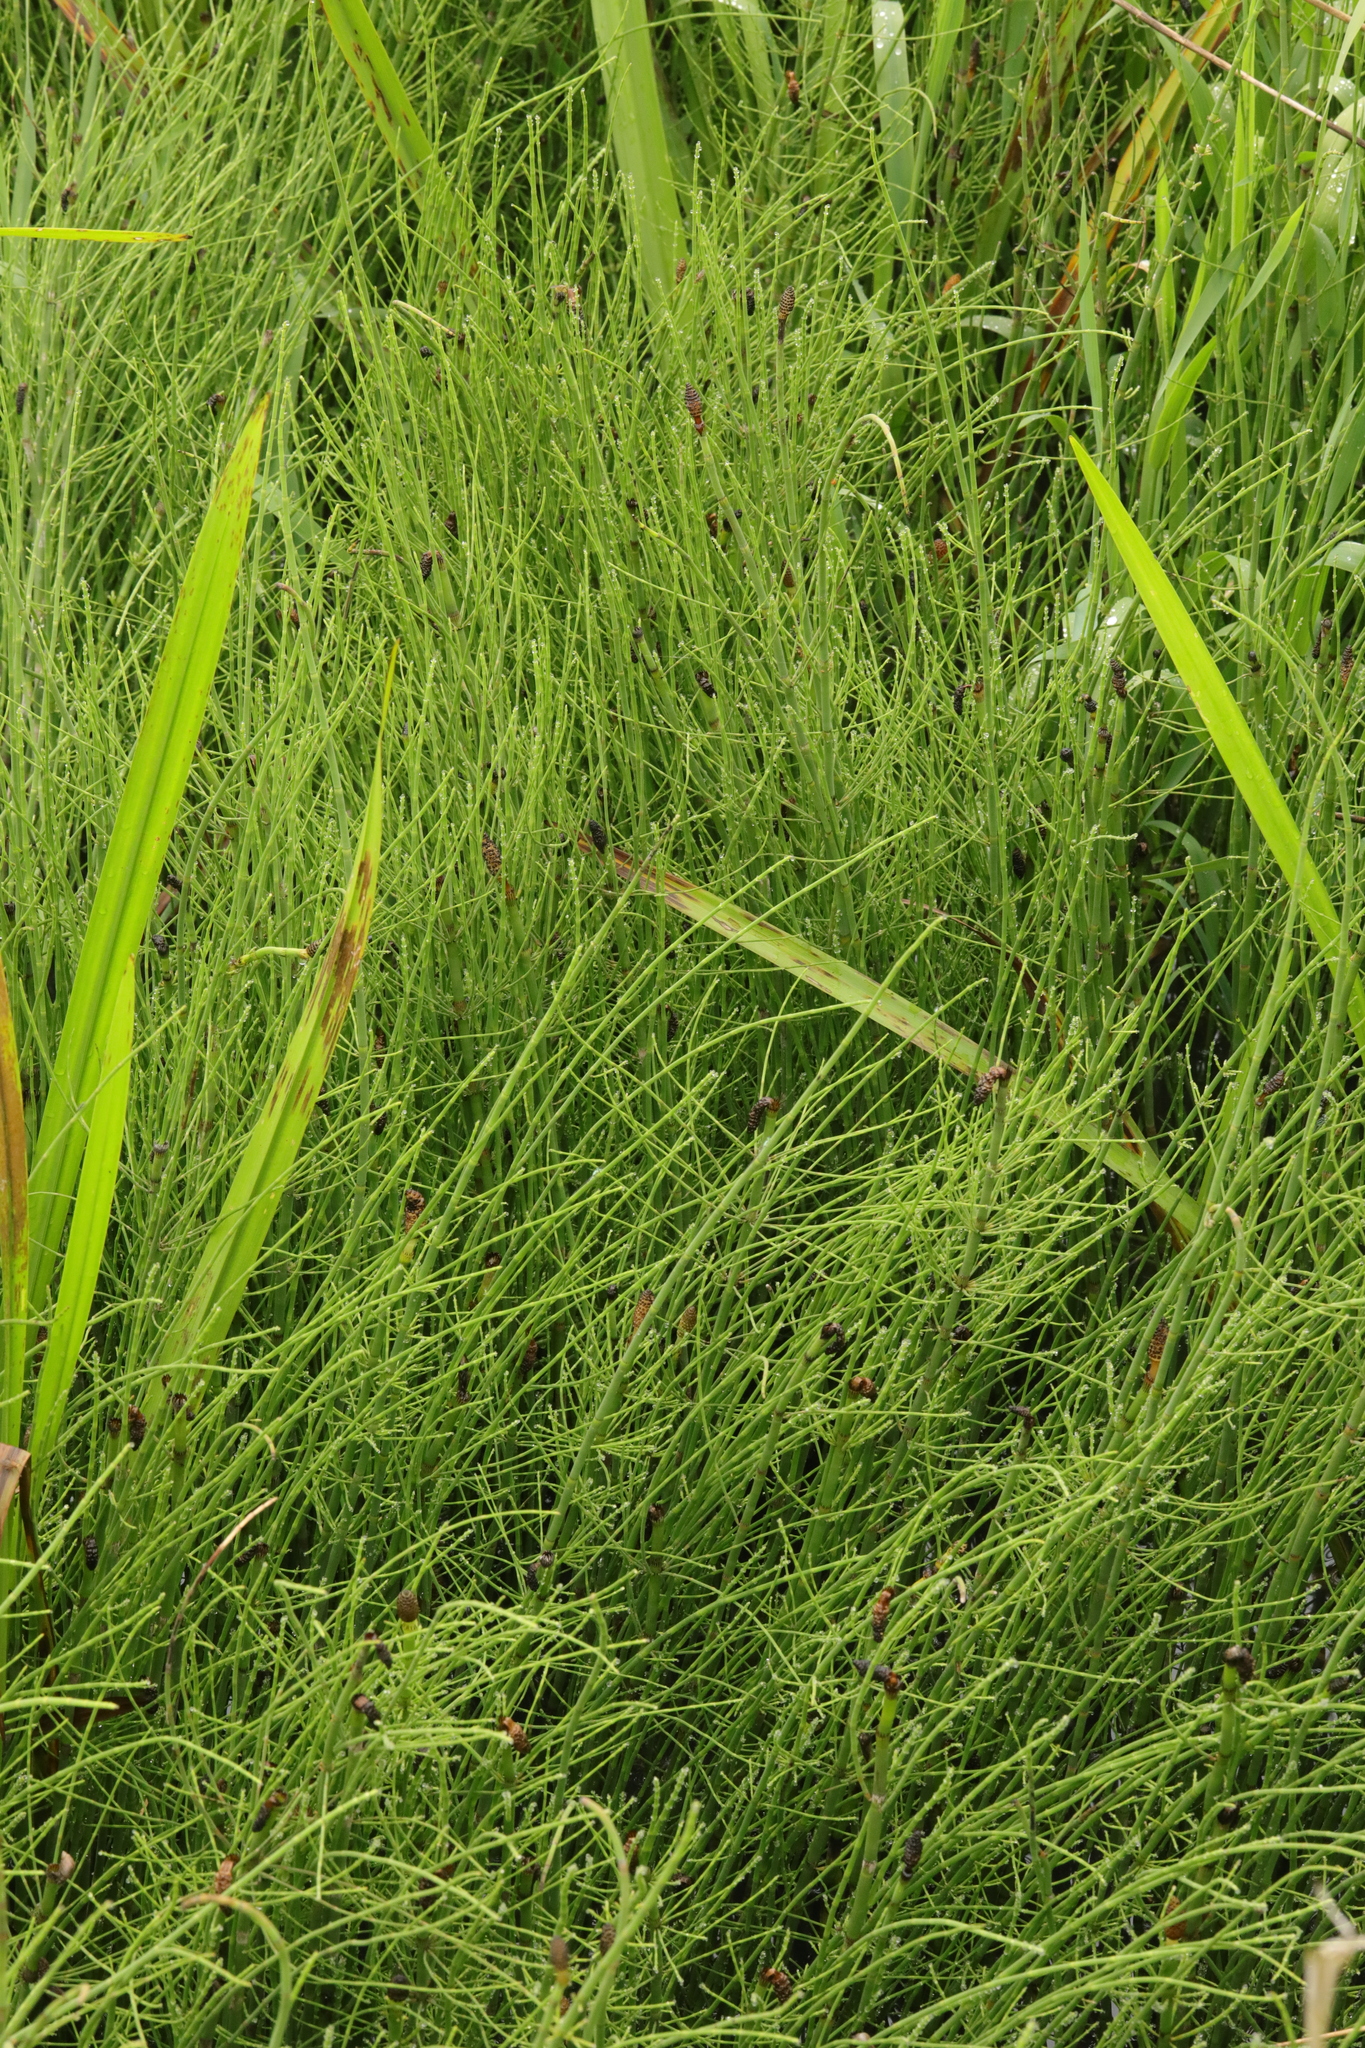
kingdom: Plantae
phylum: Tracheophyta
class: Polypodiopsida
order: Equisetales
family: Equisetaceae
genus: Equisetum
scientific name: Equisetum fluviatile
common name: Water horsetail
